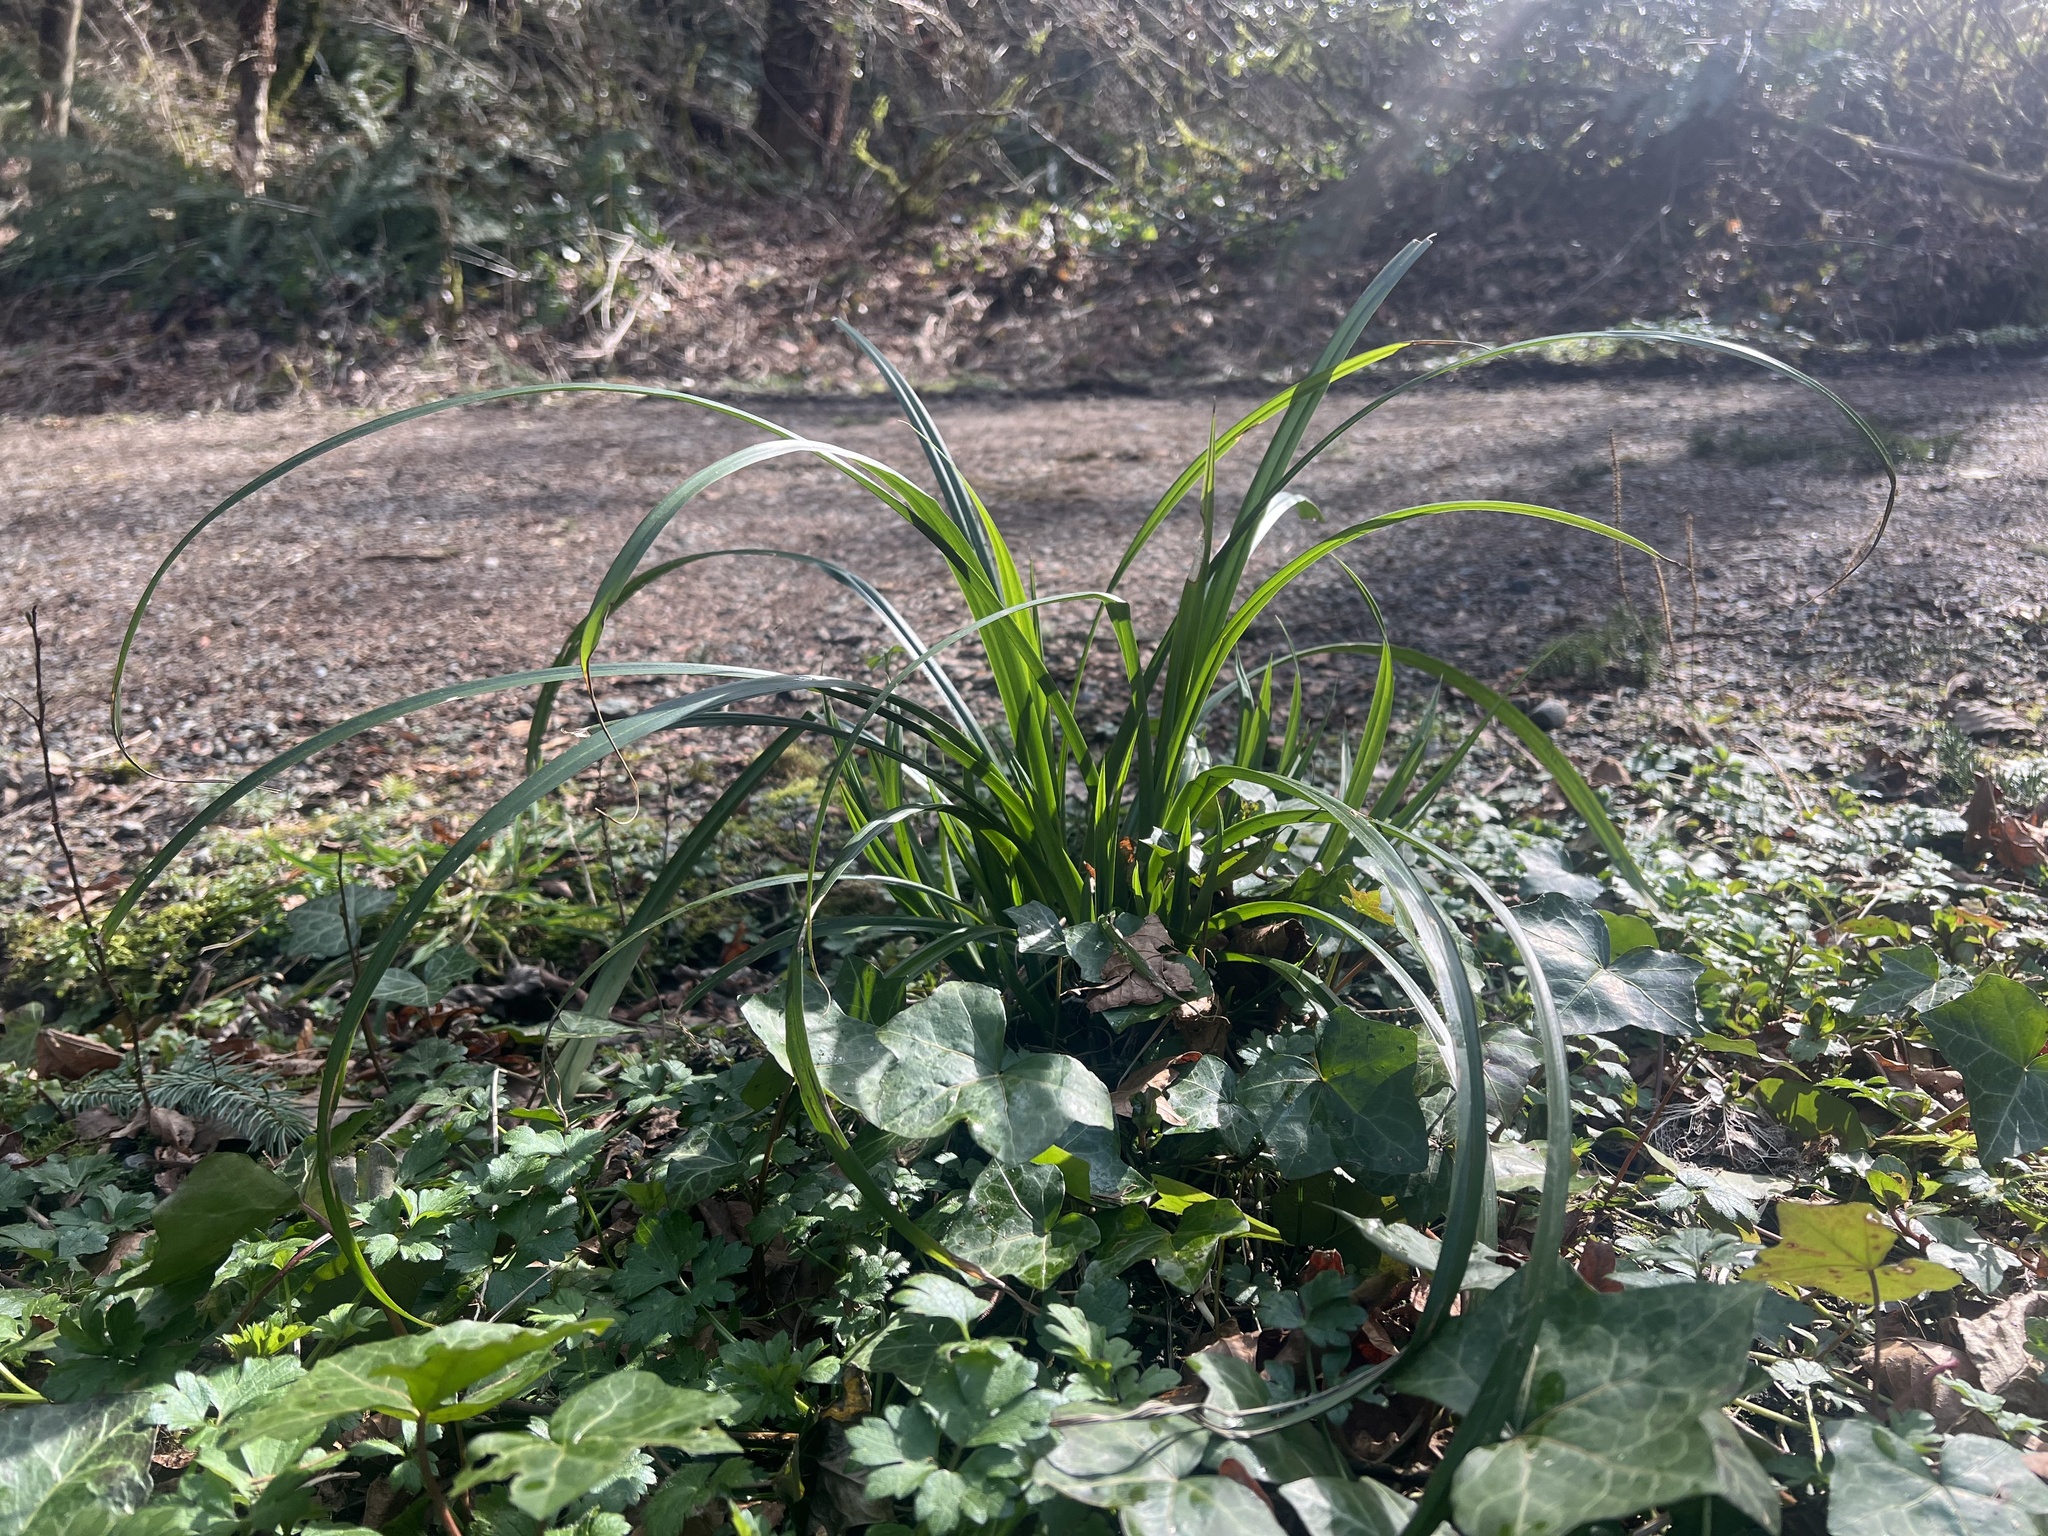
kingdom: Plantae
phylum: Tracheophyta
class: Liliopsida
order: Poales
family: Cyperaceae
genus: Carex
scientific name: Carex pendula
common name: Pendulous sedge
